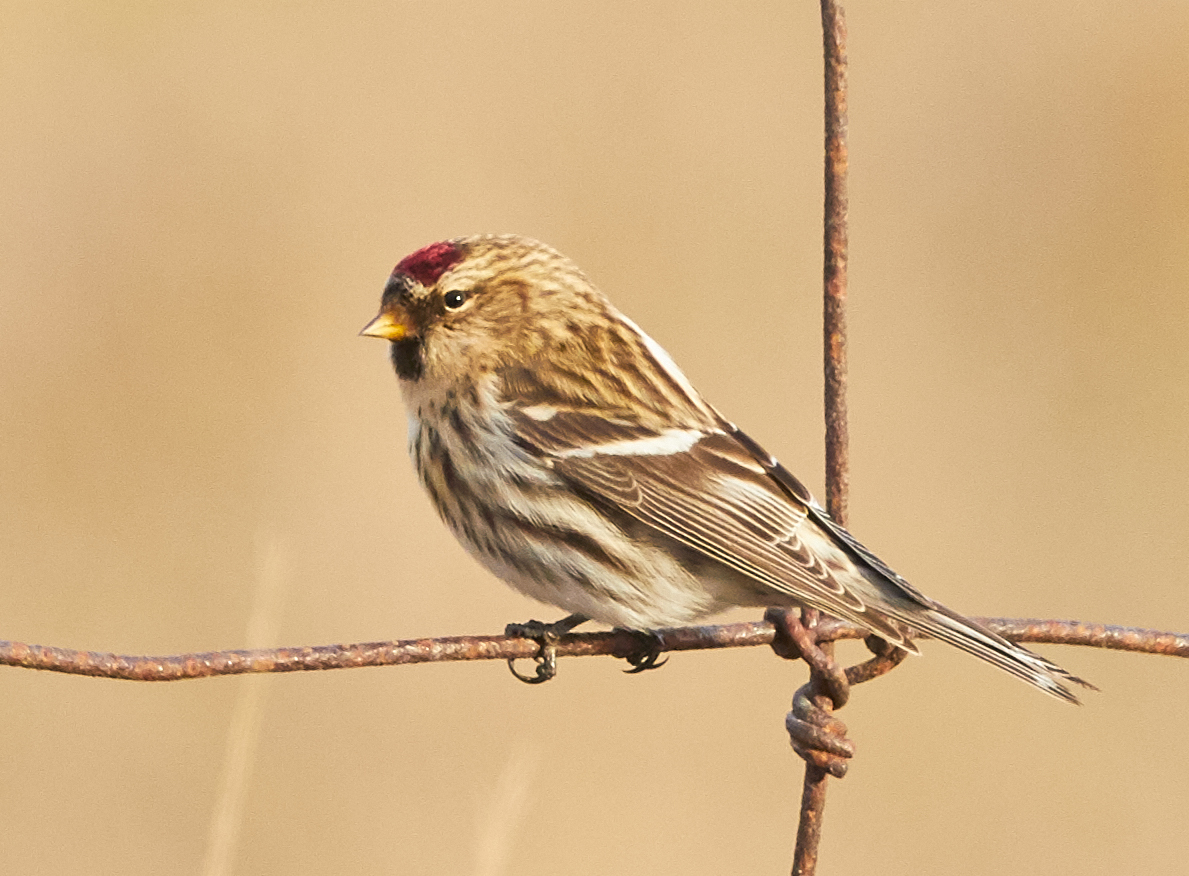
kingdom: Animalia
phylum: Chordata
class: Aves
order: Passeriformes
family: Fringillidae
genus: Acanthis
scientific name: Acanthis flammea
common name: Common redpoll
